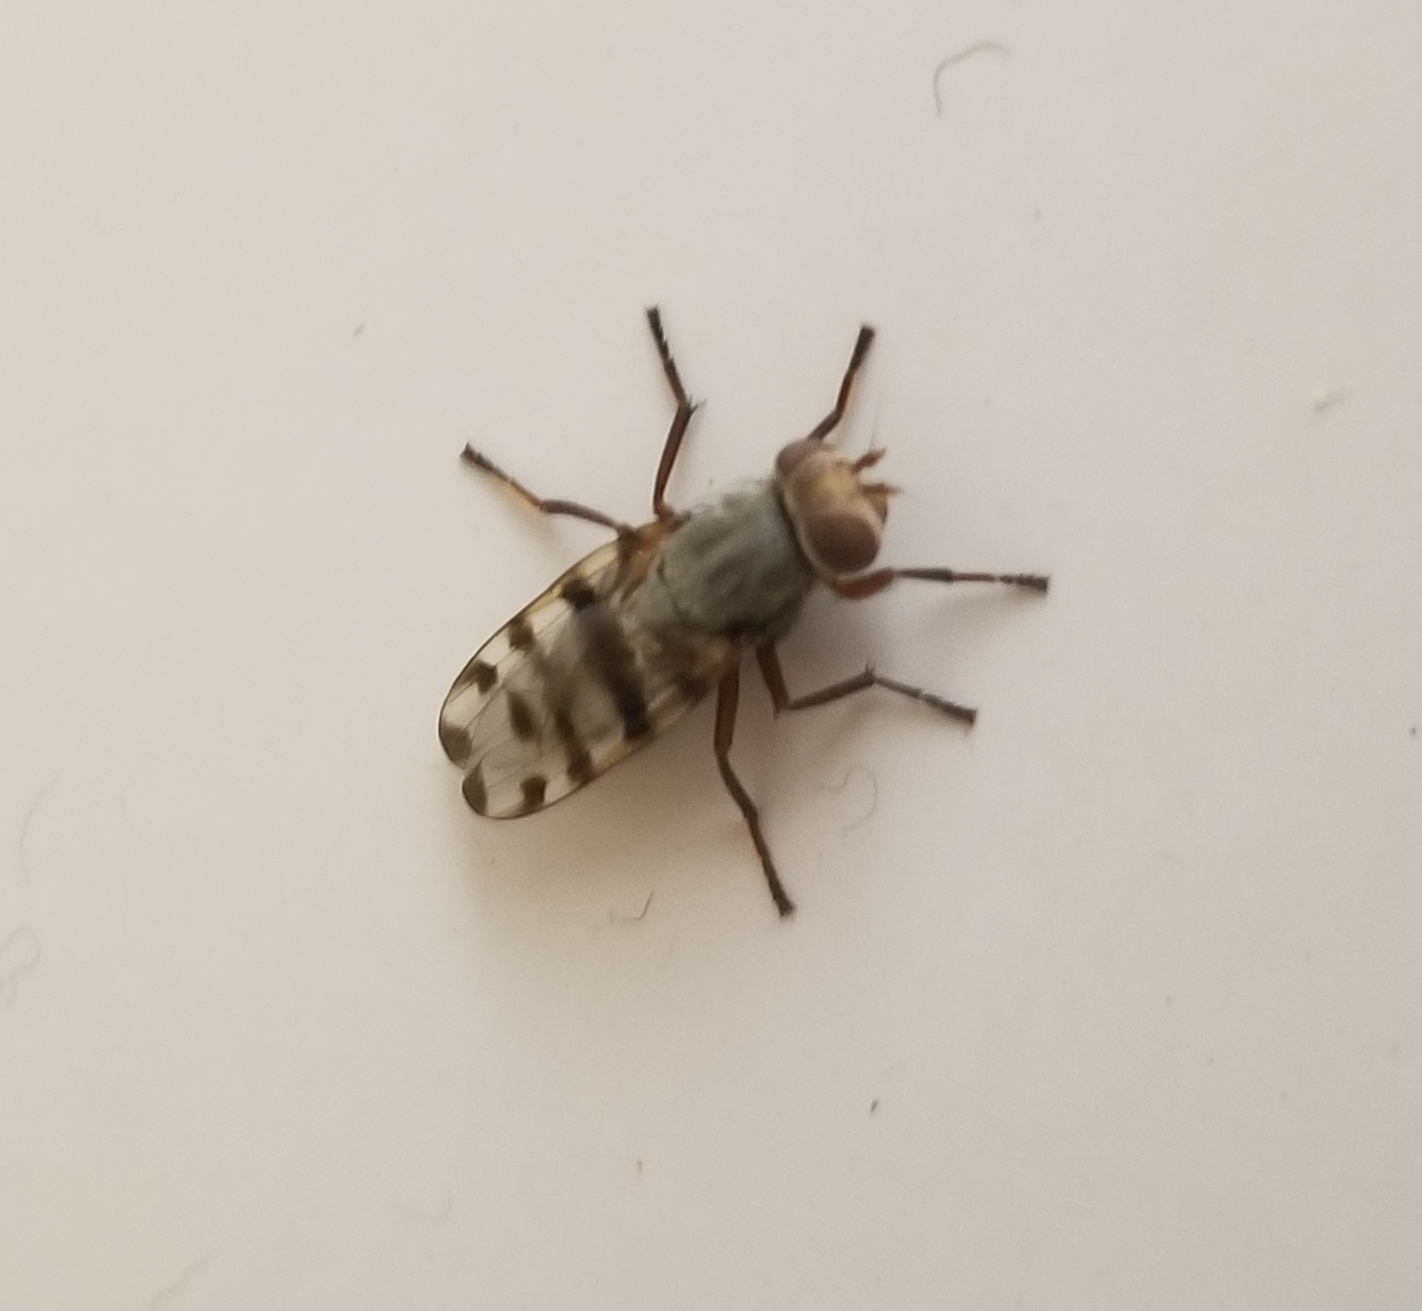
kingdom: Animalia
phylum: Arthropoda
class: Insecta
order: Diptera
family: Ulidiidae
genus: Ceroxys
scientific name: Ceroxys latiusculus
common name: Picture-winged fly
